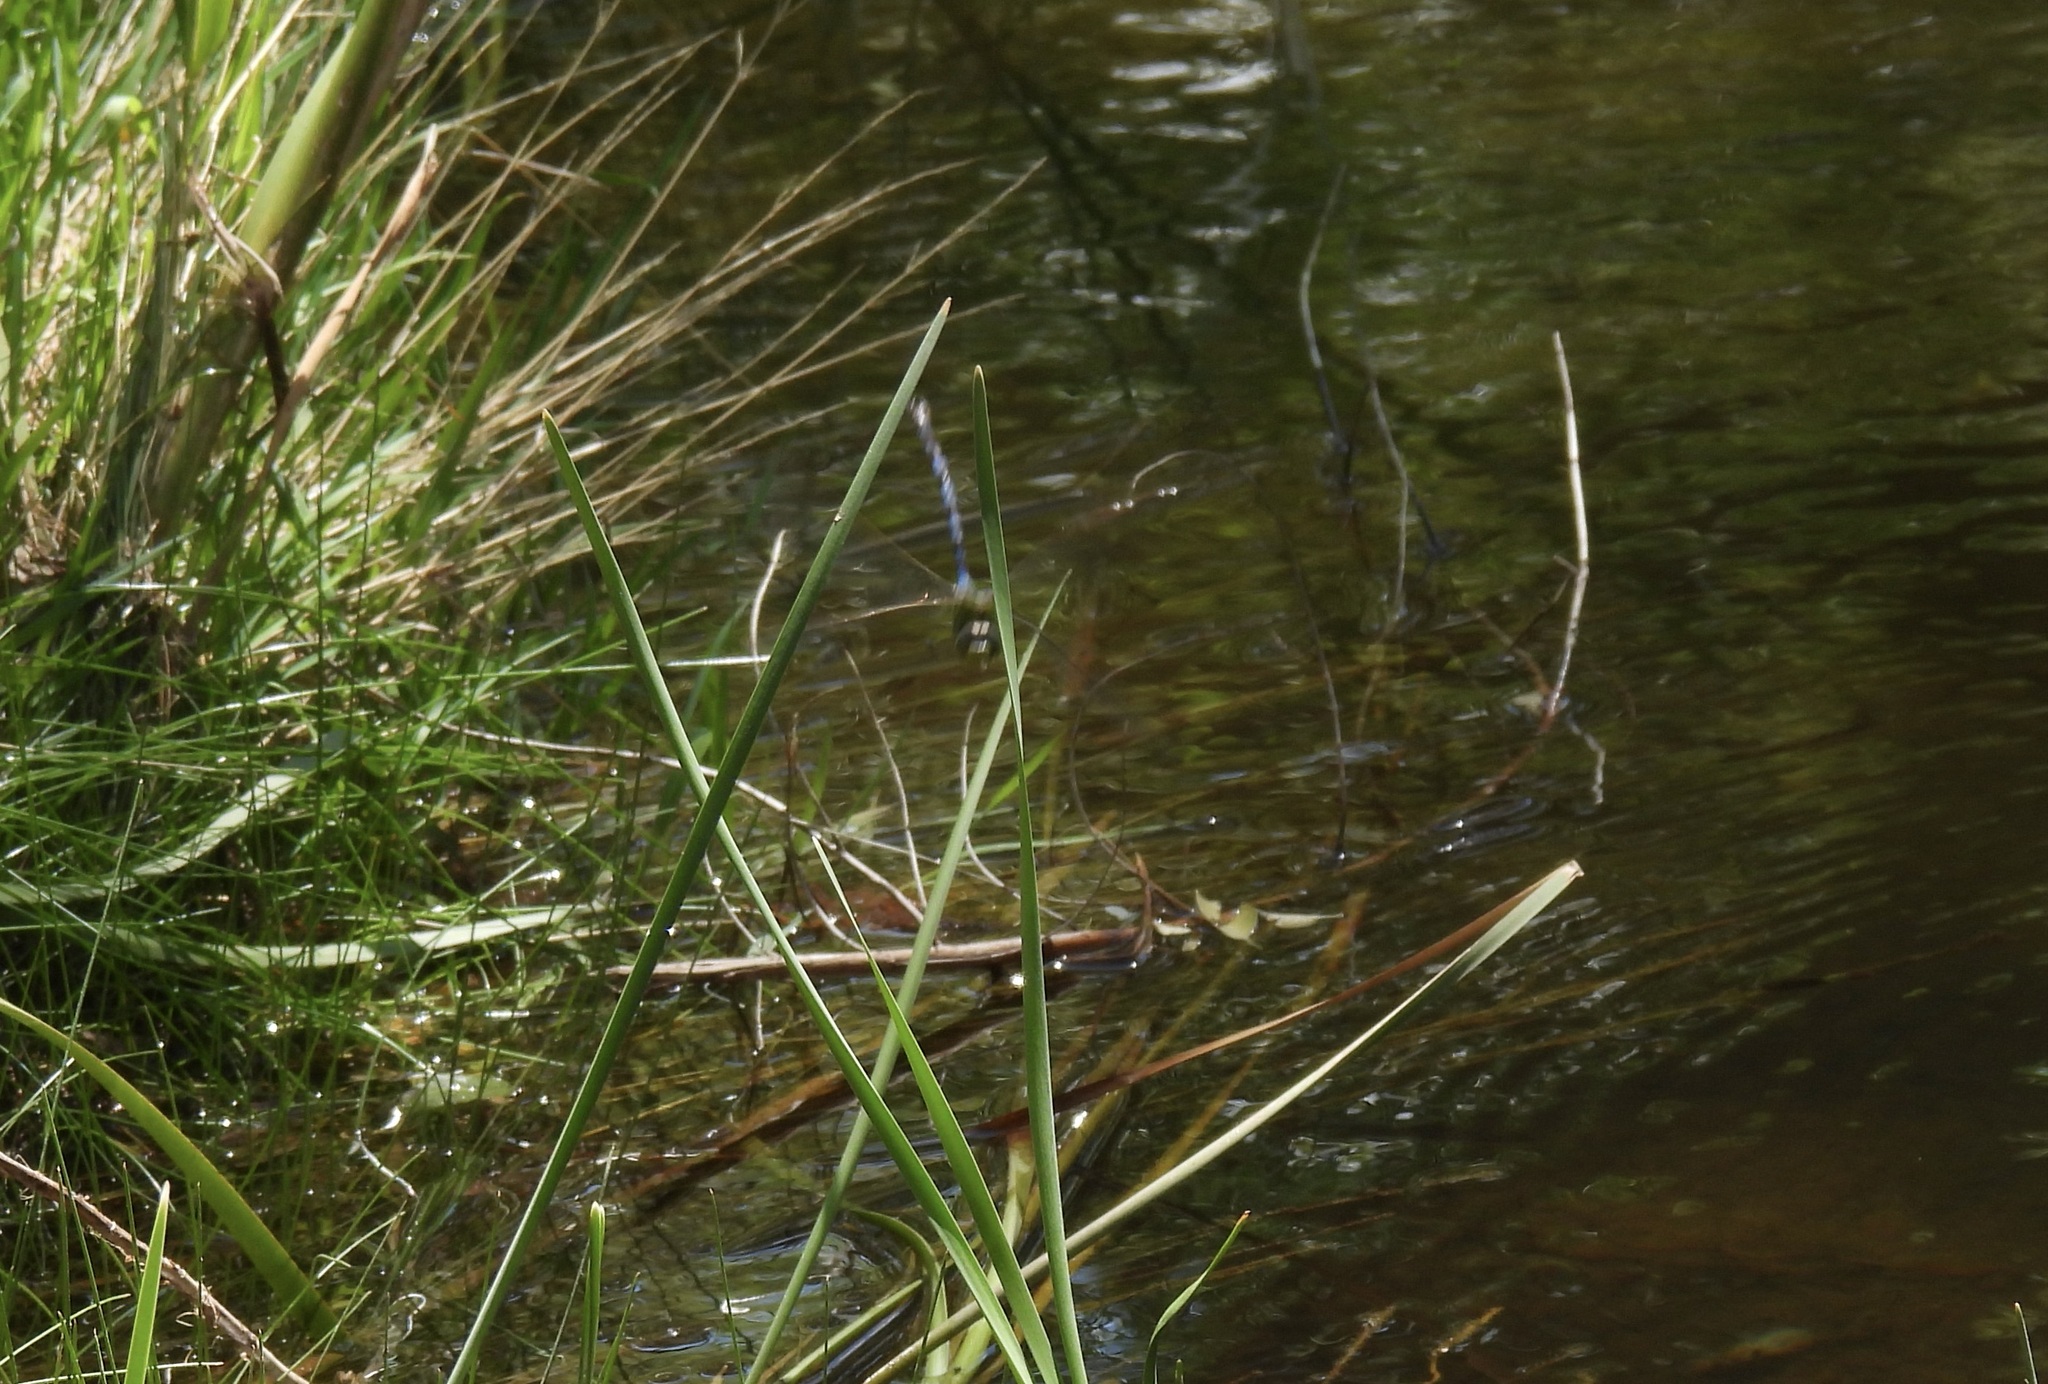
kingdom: Animalia
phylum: Arthropoda
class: Insecta
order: Odonata
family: Aeshnidae
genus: Anax
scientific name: Anax walsinghami
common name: Giant darner
